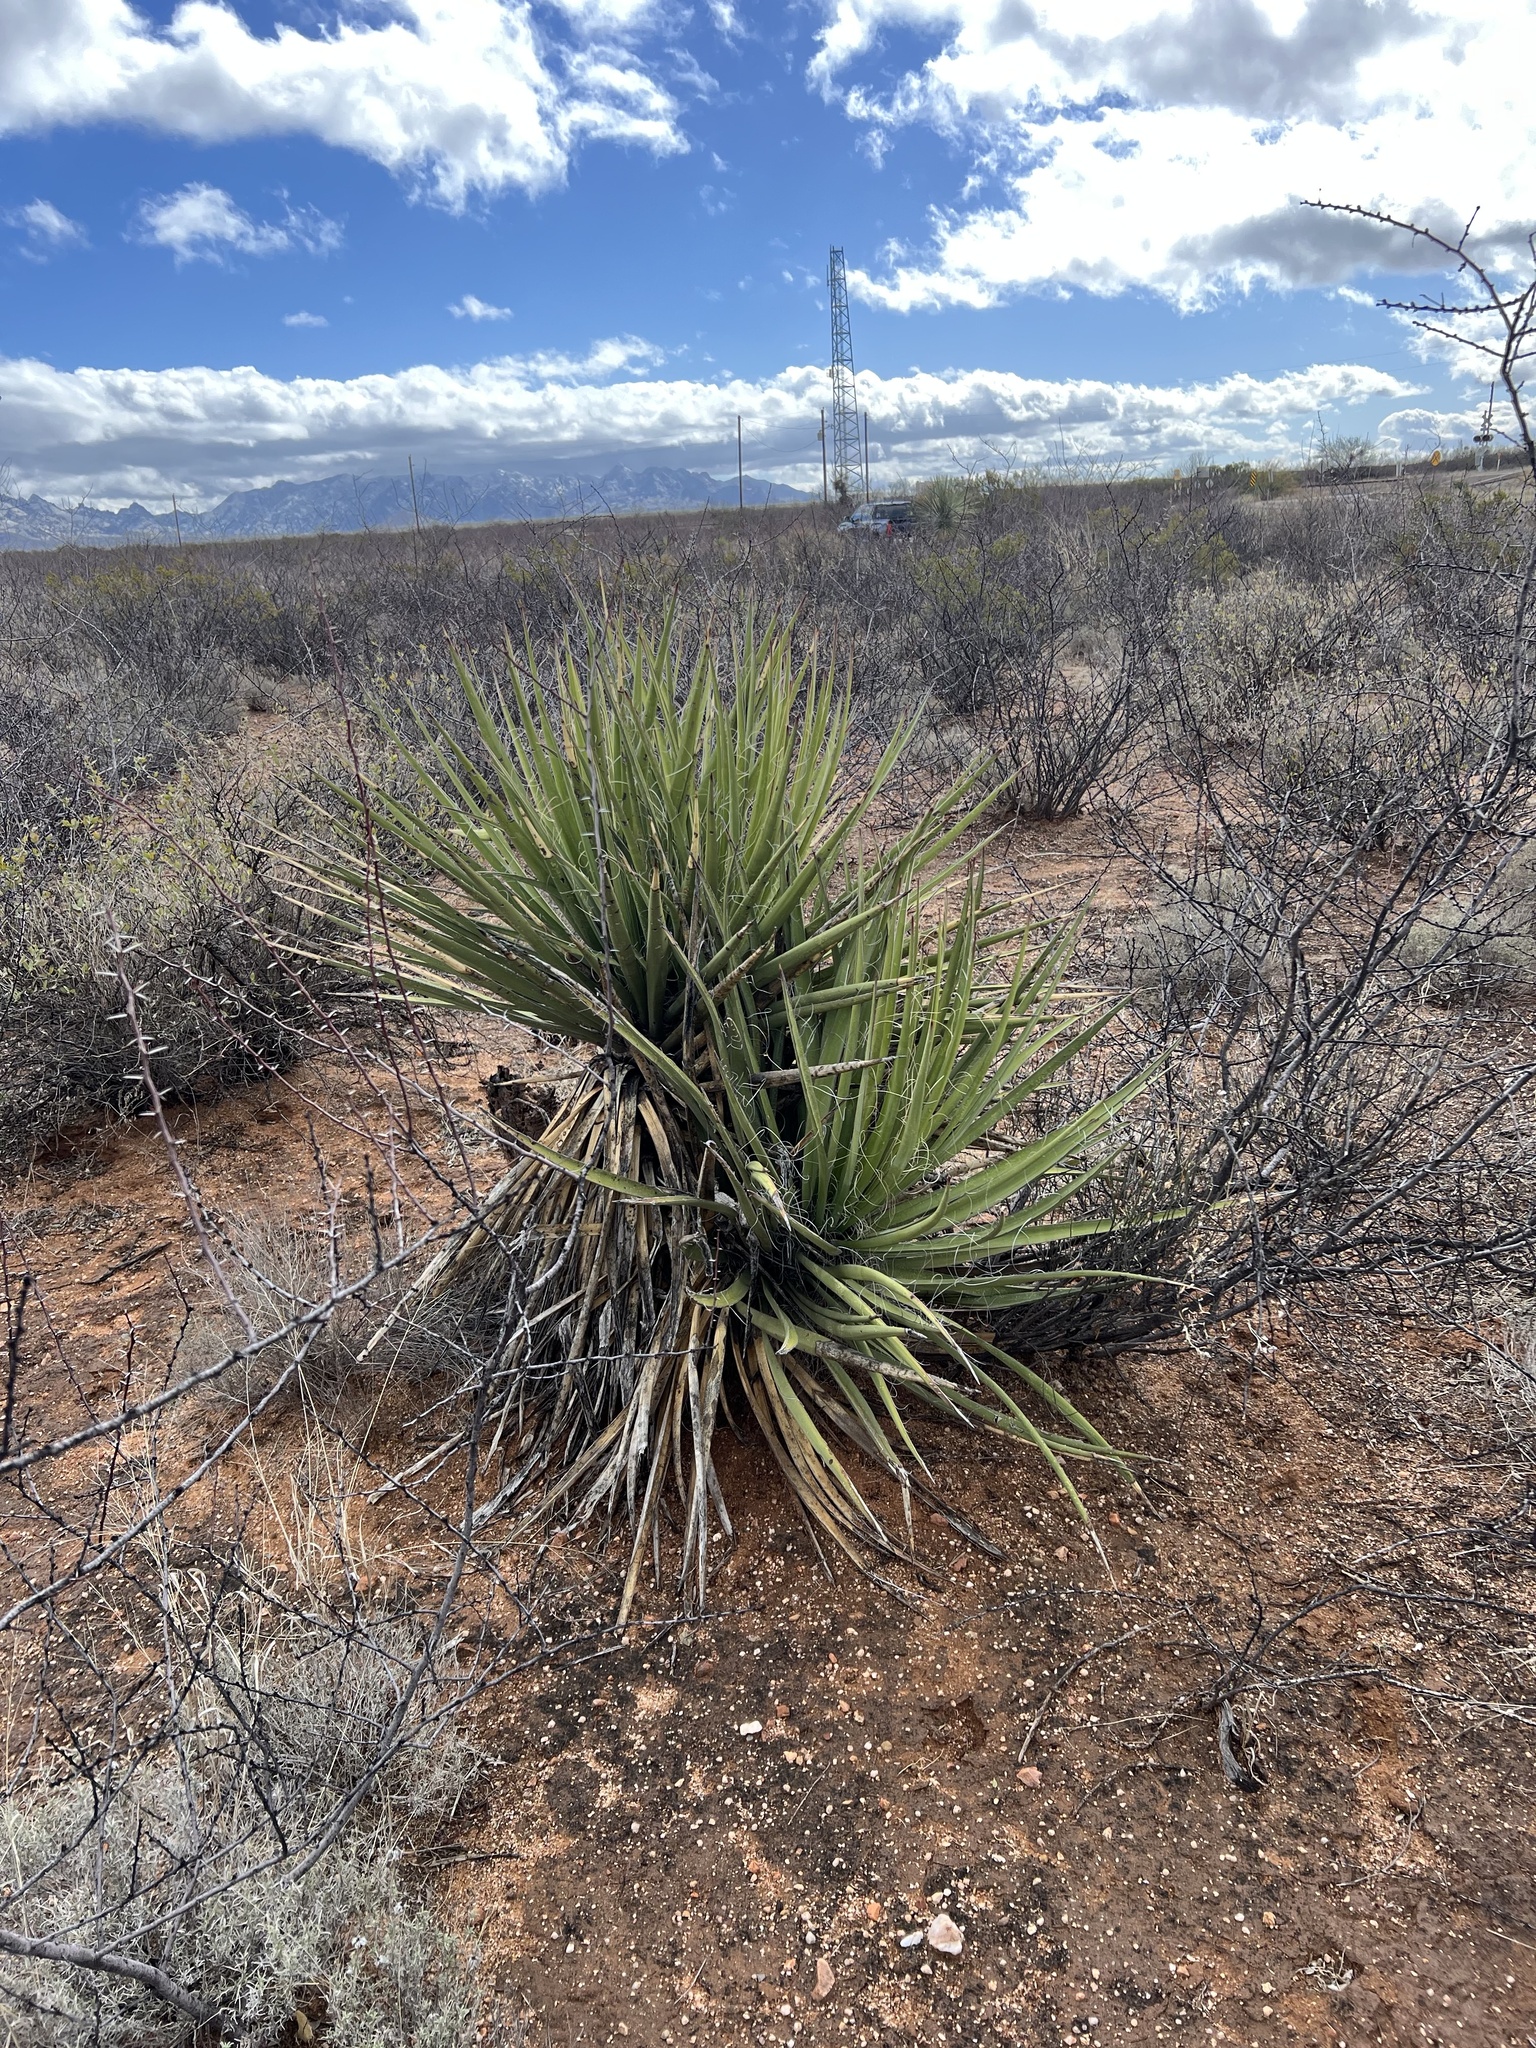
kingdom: Plantae
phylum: Tracheophyta
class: Liliopsida
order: Asparagales
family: Asparagaceae
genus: Yucca
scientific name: Yucca baccata
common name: Banana yucca
